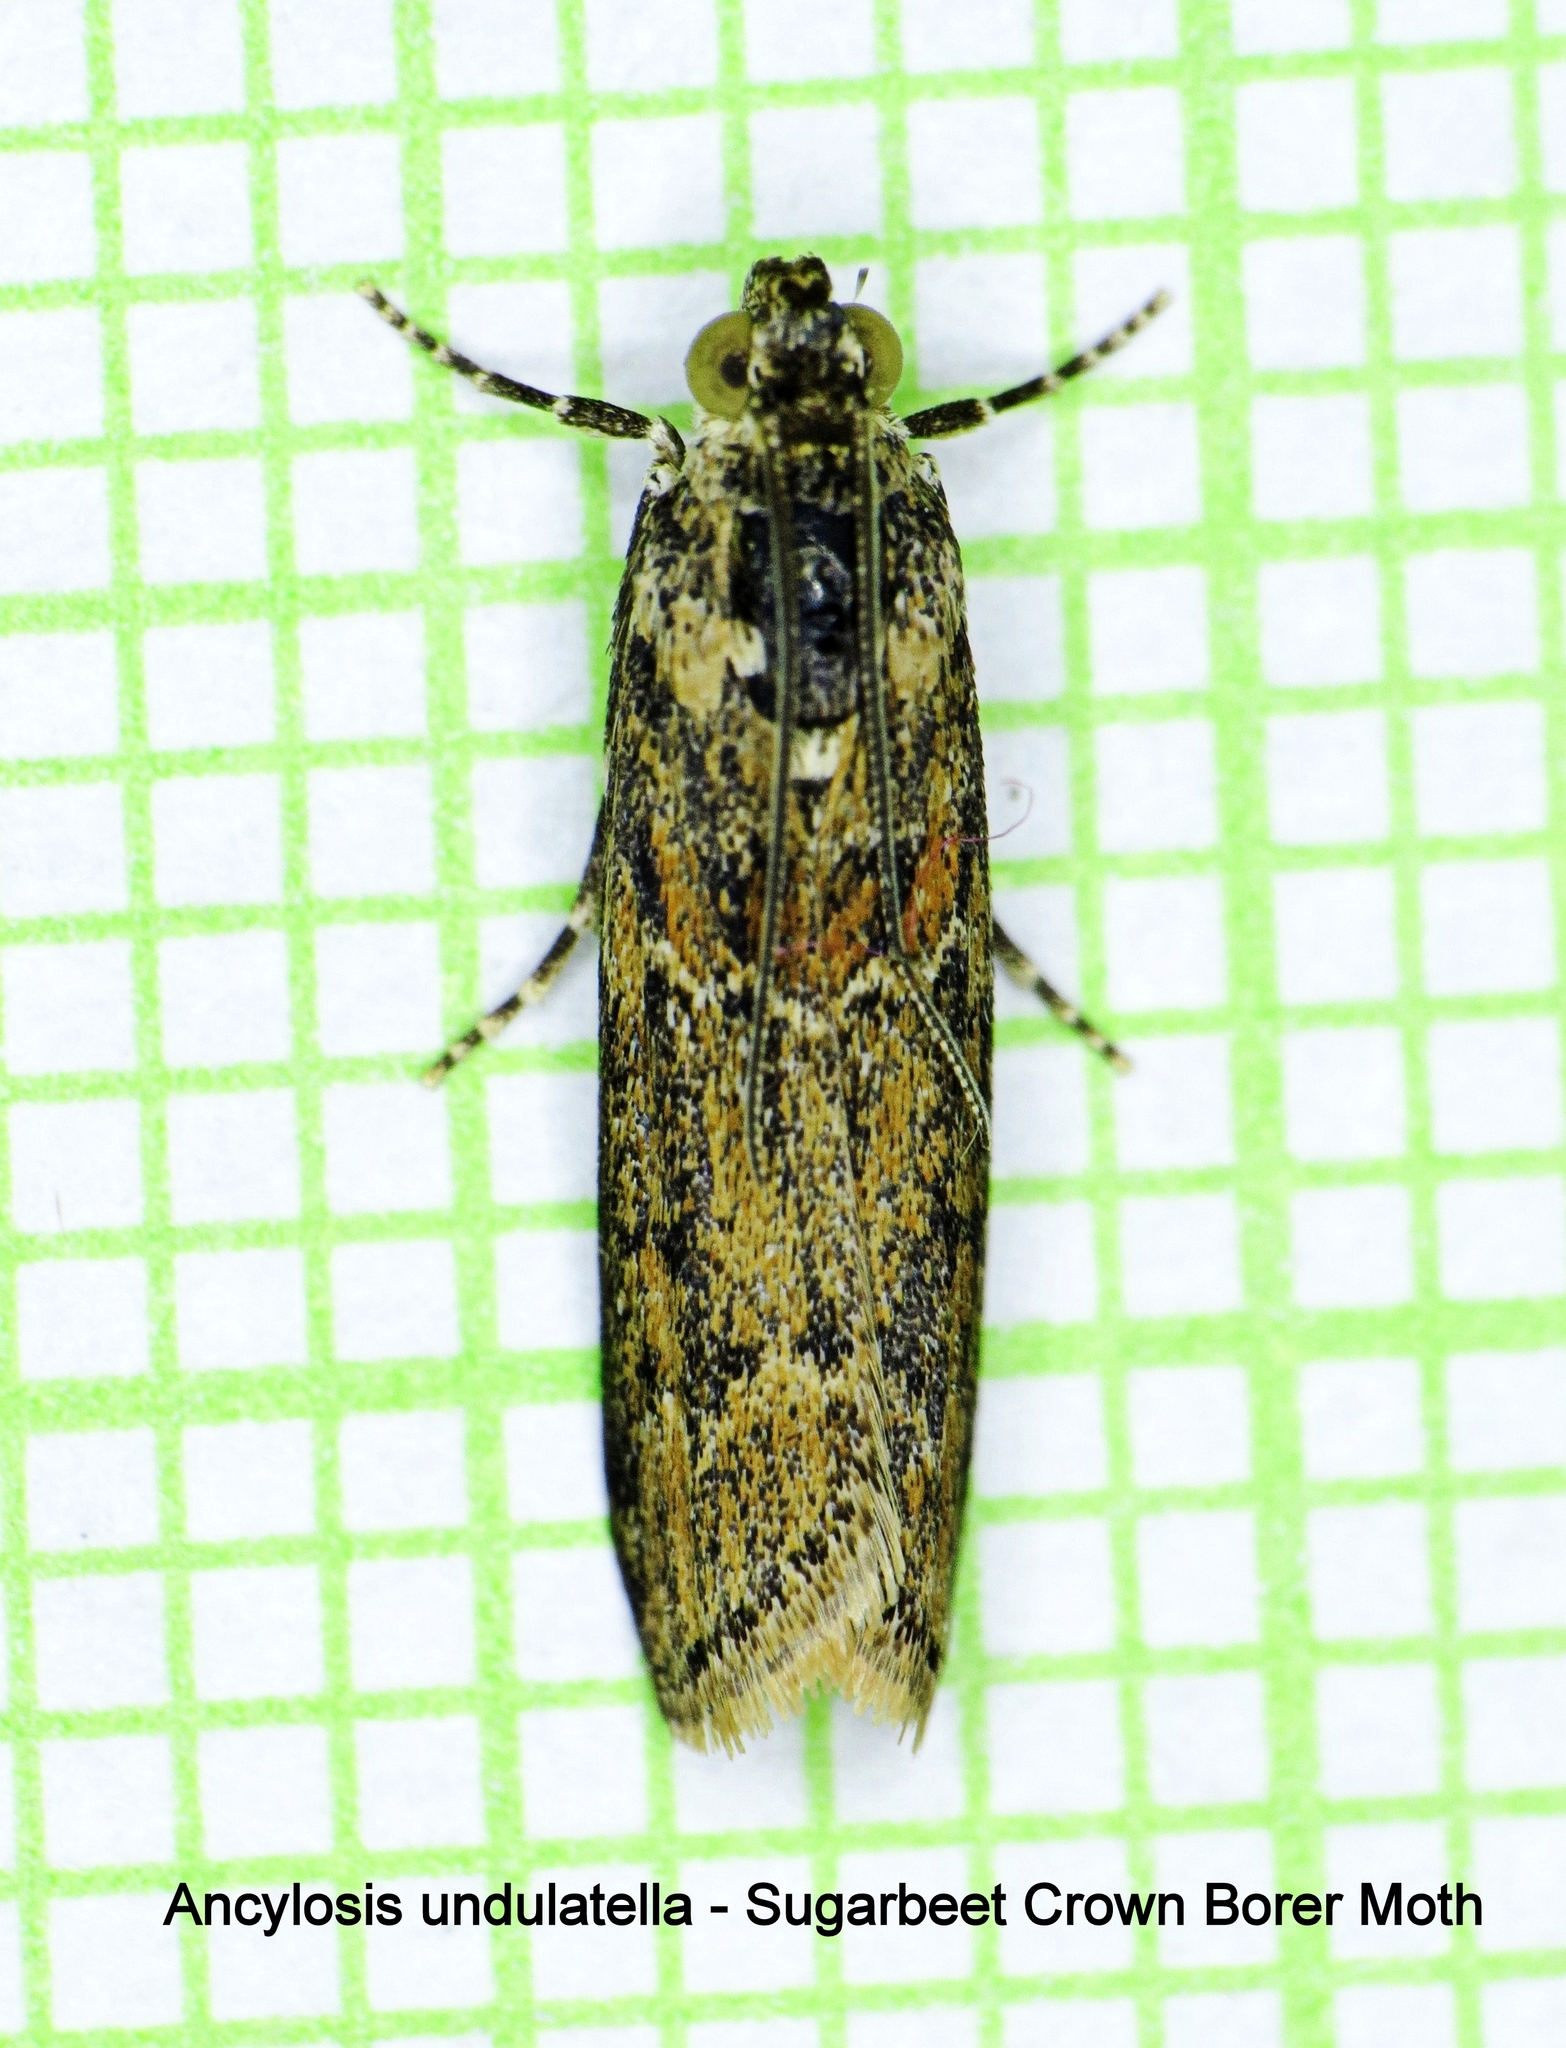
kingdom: Animalia
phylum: Arthropoda
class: Insecta
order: Lepidoptera
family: Pyralidae
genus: Ancylosis
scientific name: Ancylosis undulatella
